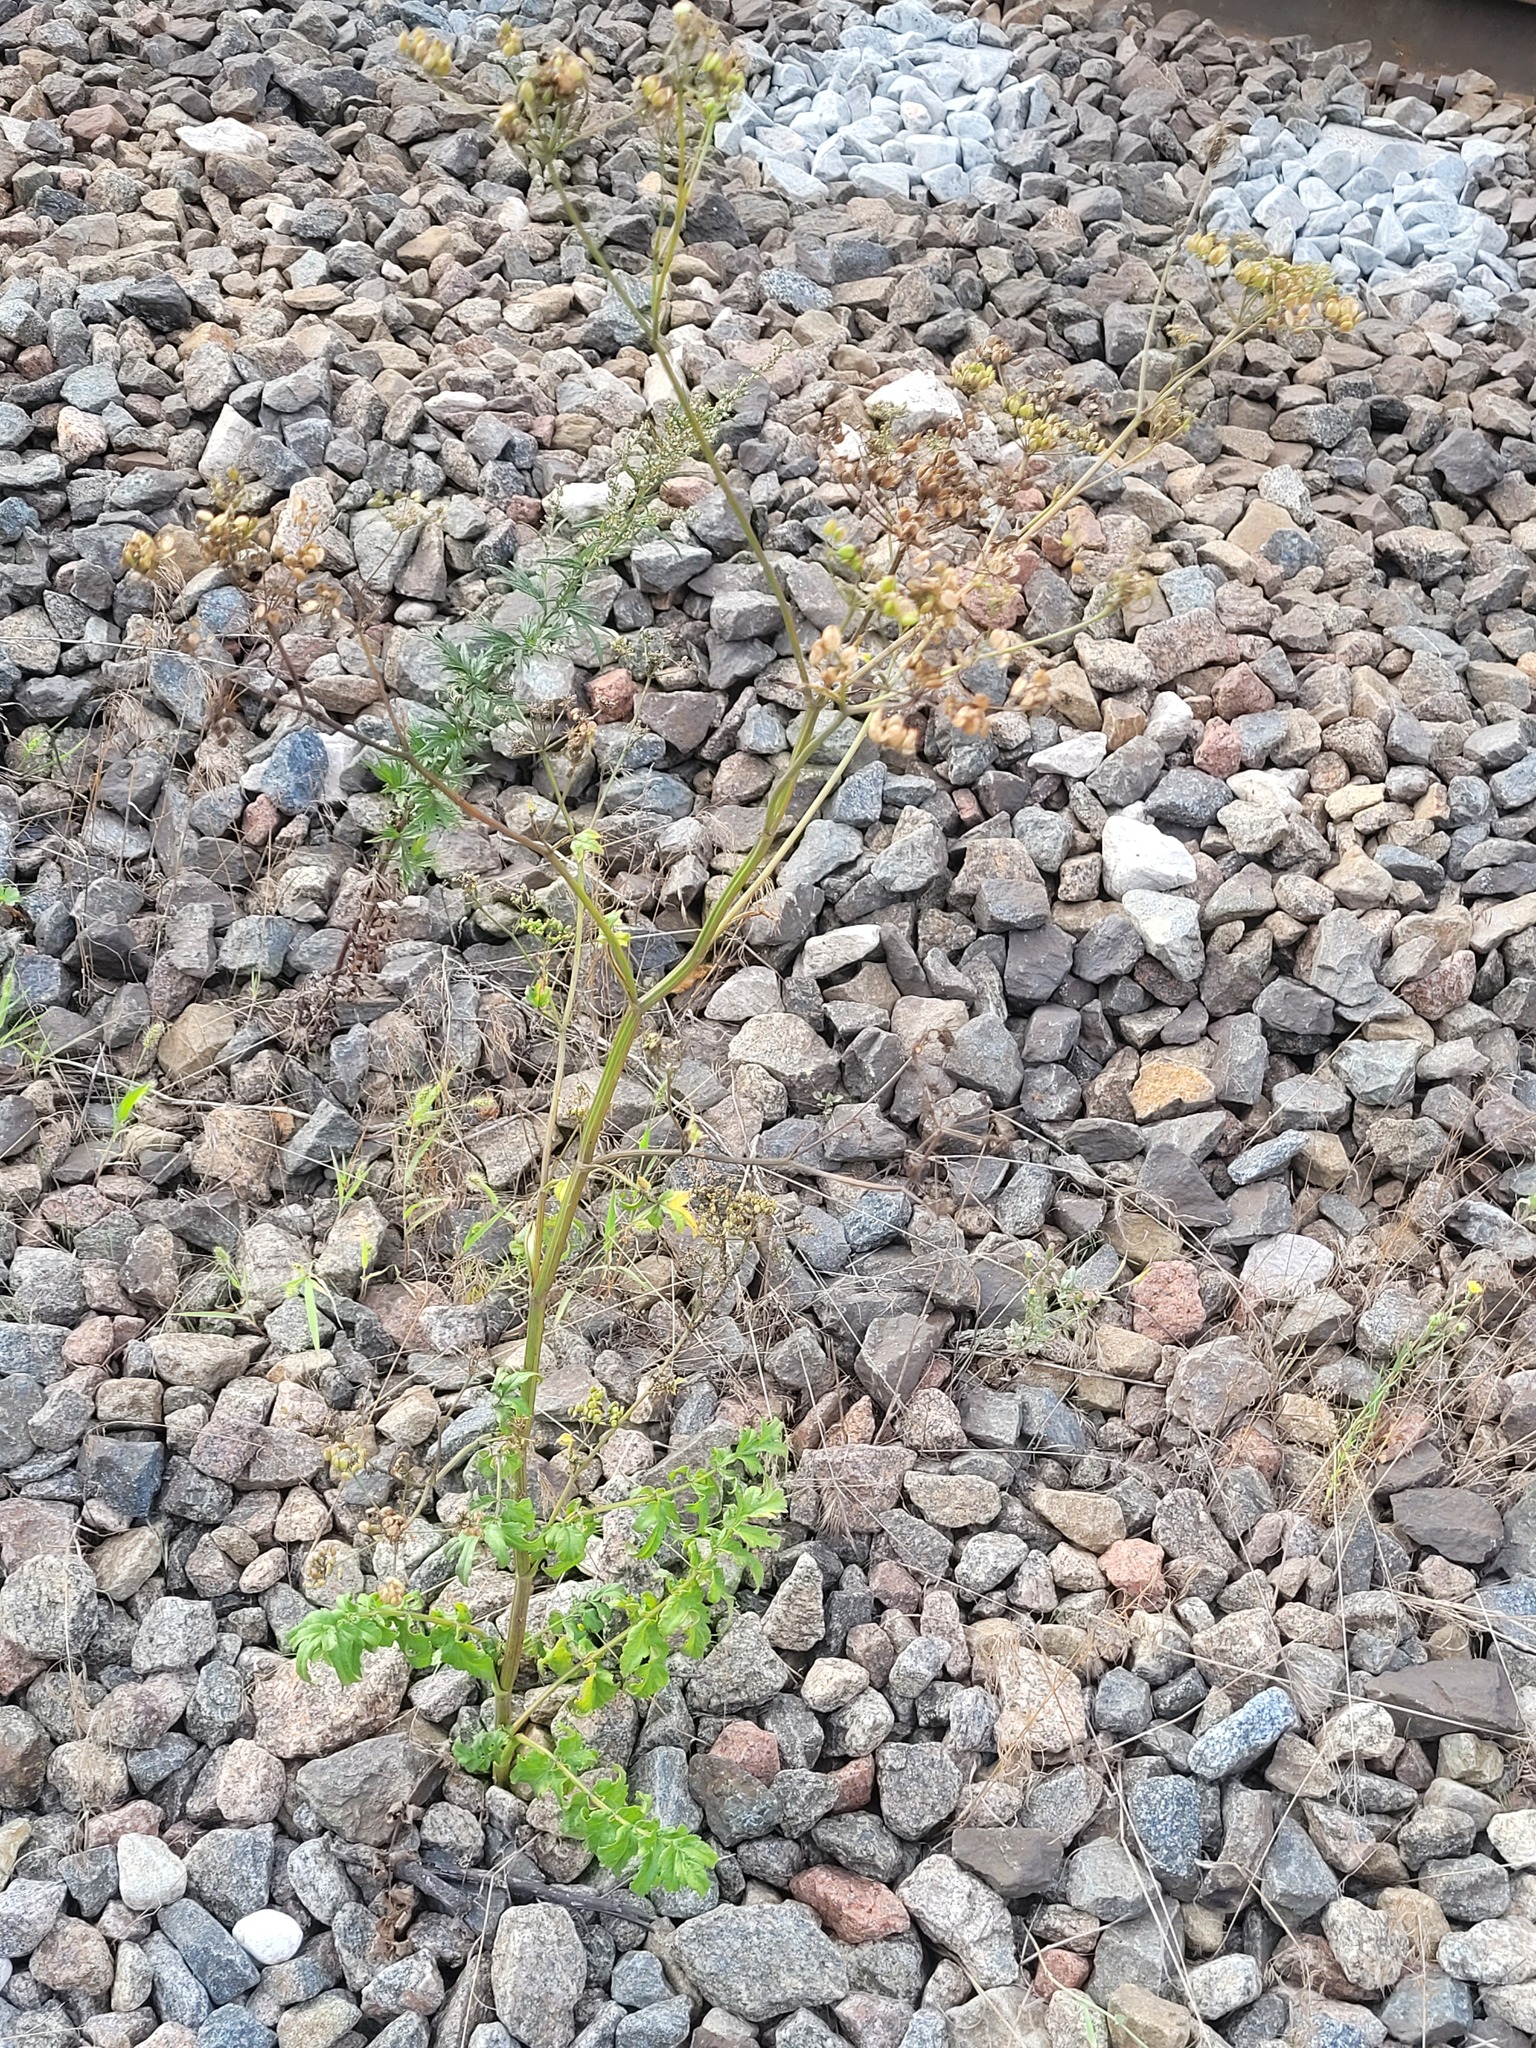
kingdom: Plantae
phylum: Tracheophyta
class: Magnoliopsida
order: Apiales
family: Apiaceae
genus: Pastinaca
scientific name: Pastinaca sativa
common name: Wild parsnip
